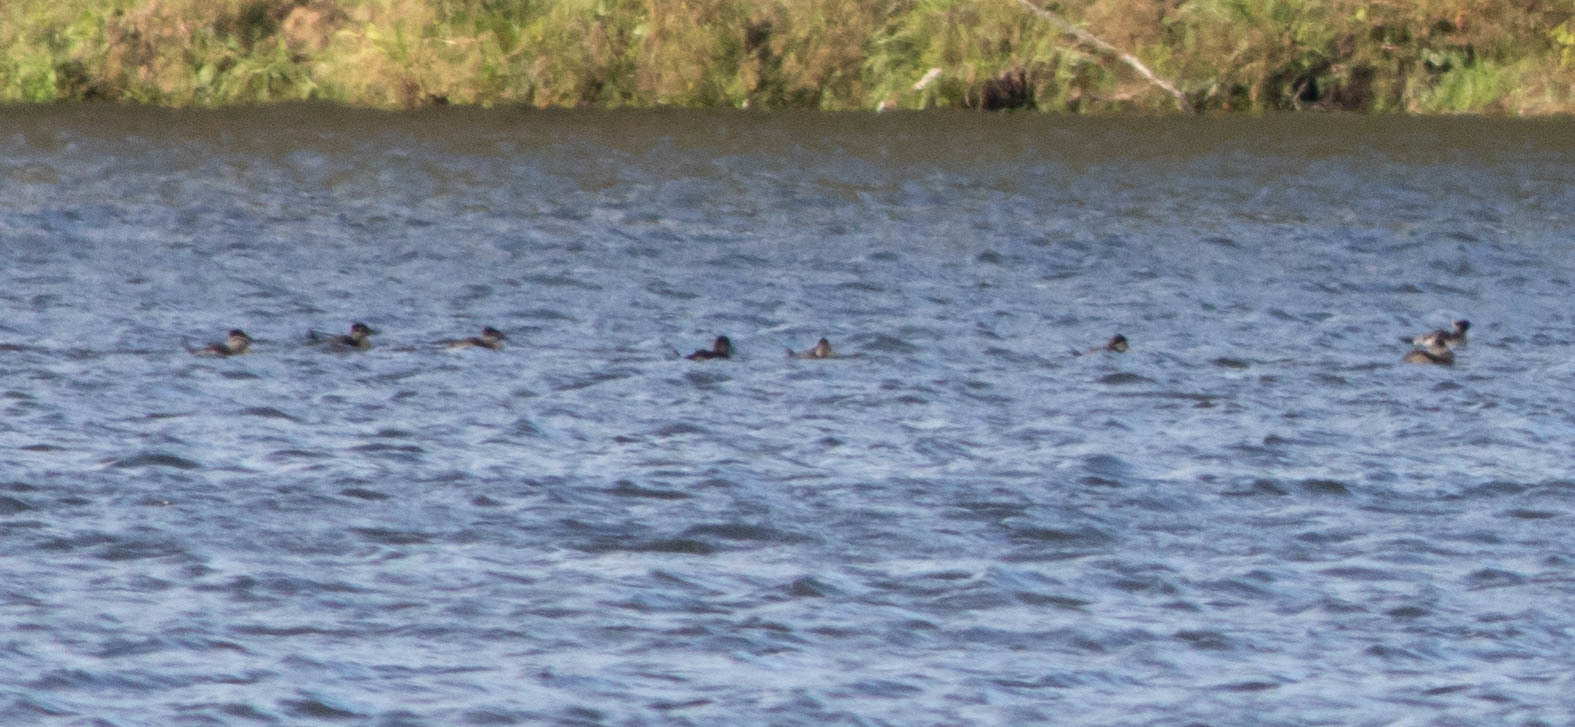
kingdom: Animalia
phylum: Chordata
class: Aves
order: Anseriformes
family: Anatidae
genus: Oxyura
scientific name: Oxyura jamaicensis
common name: Ruddy duck
